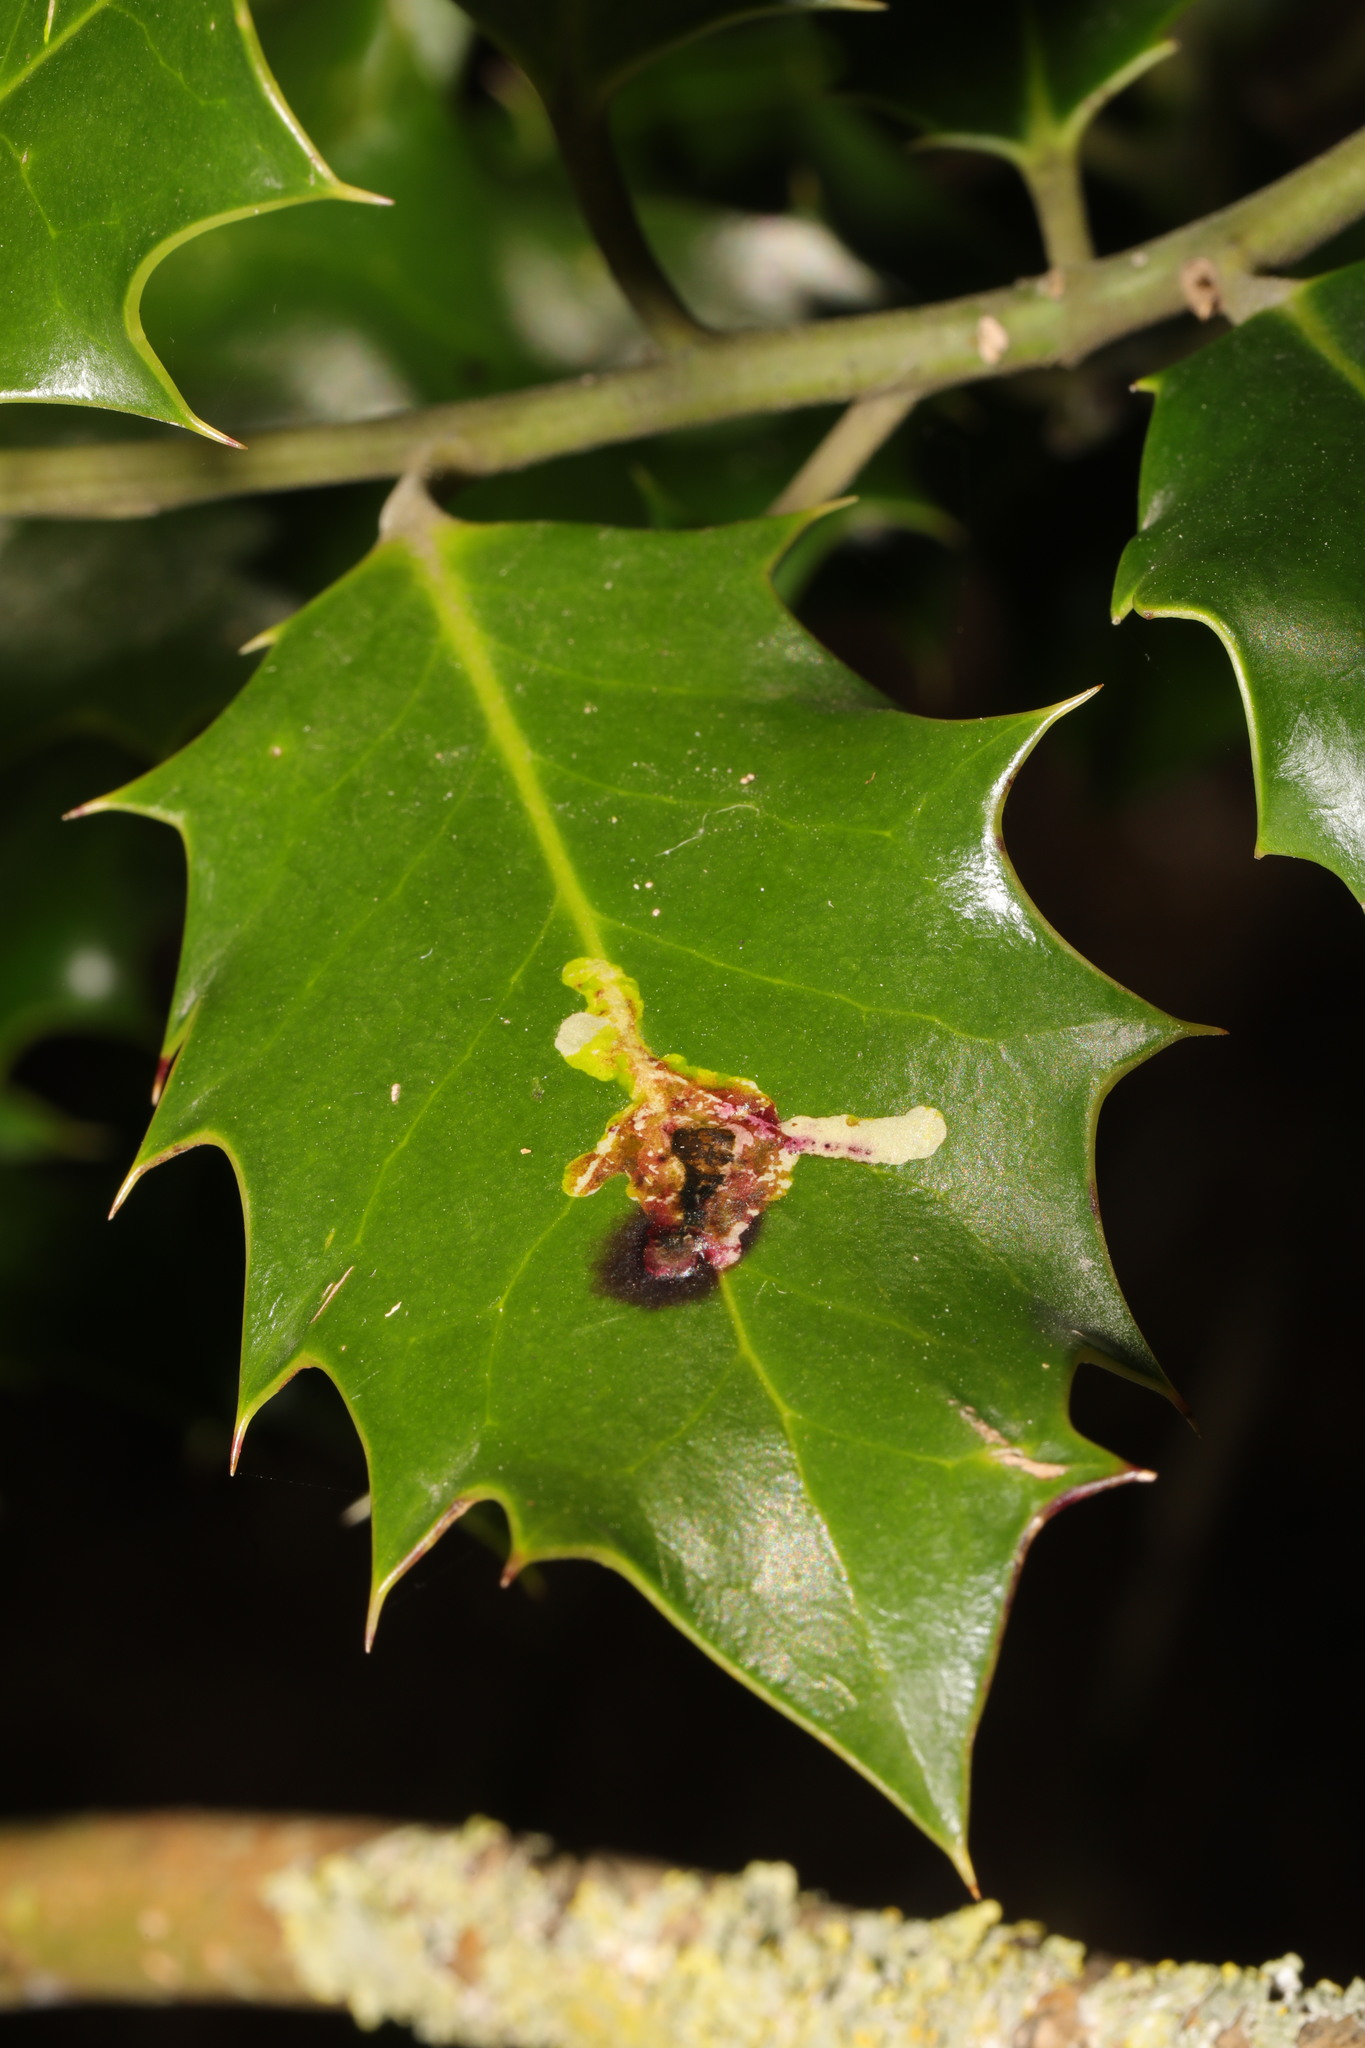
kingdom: Animalia
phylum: Arthropoda
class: Insecta
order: Diptera
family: Agromyzidae
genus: Phytomyza
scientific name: Phytomyza ilicis
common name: Holly leafminer
